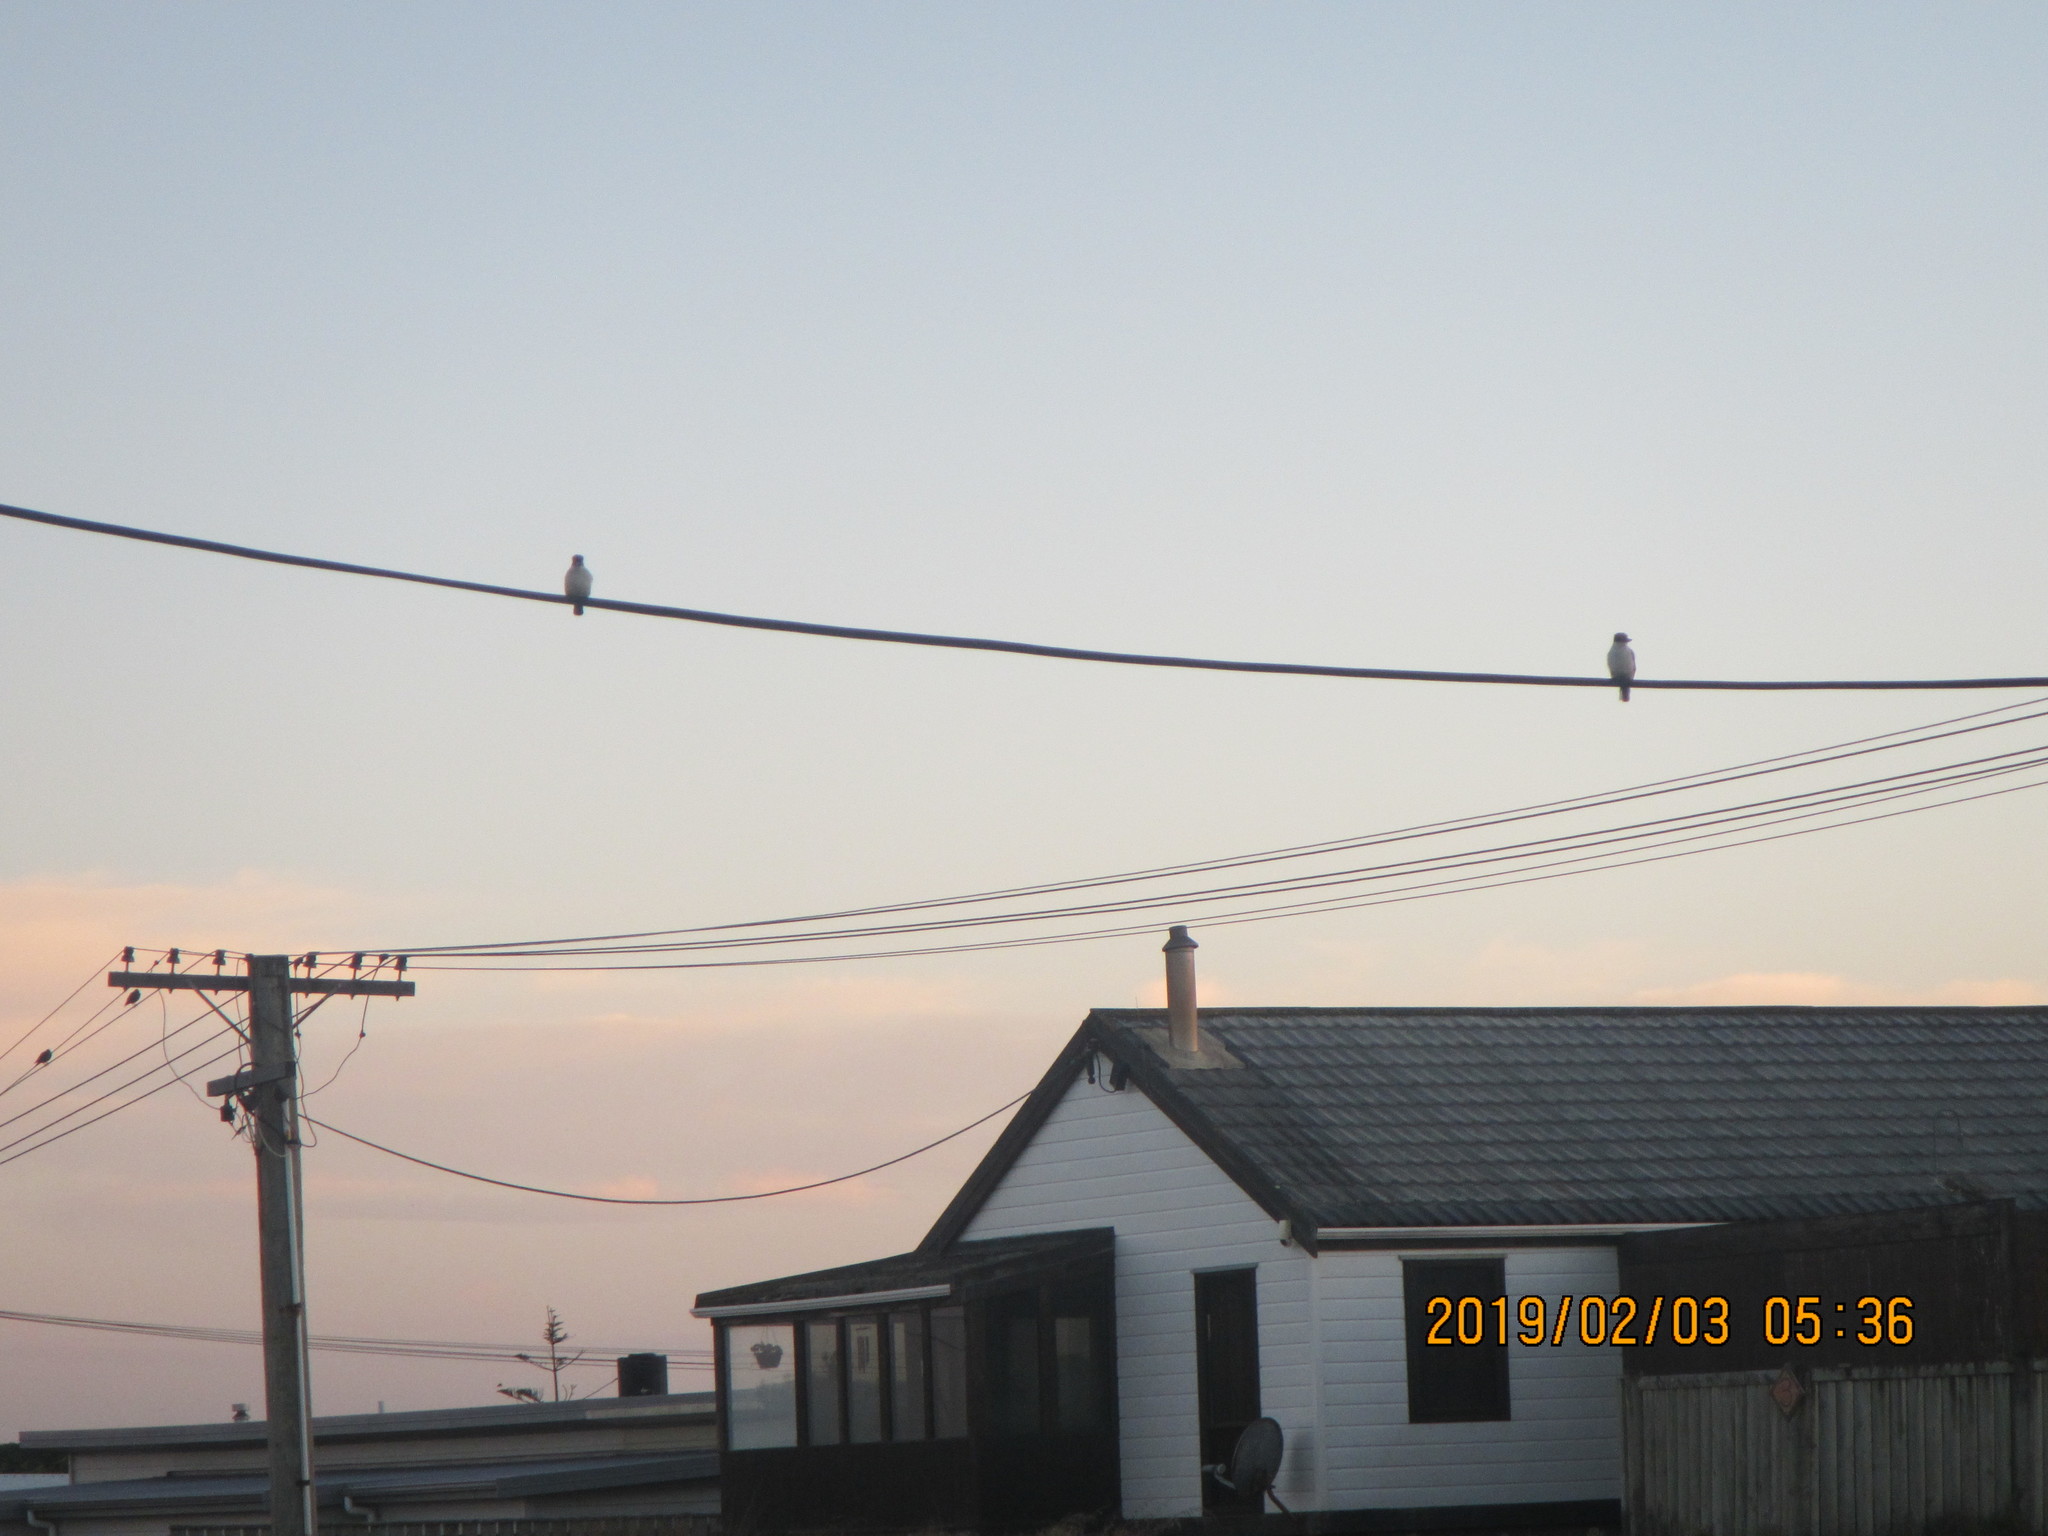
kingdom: Animalia
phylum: Chordata
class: Aves
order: Coraciiformes
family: Alcedinidae
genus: Todiramphus
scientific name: Todiramphus sanctus
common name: Sacred kingfisher
